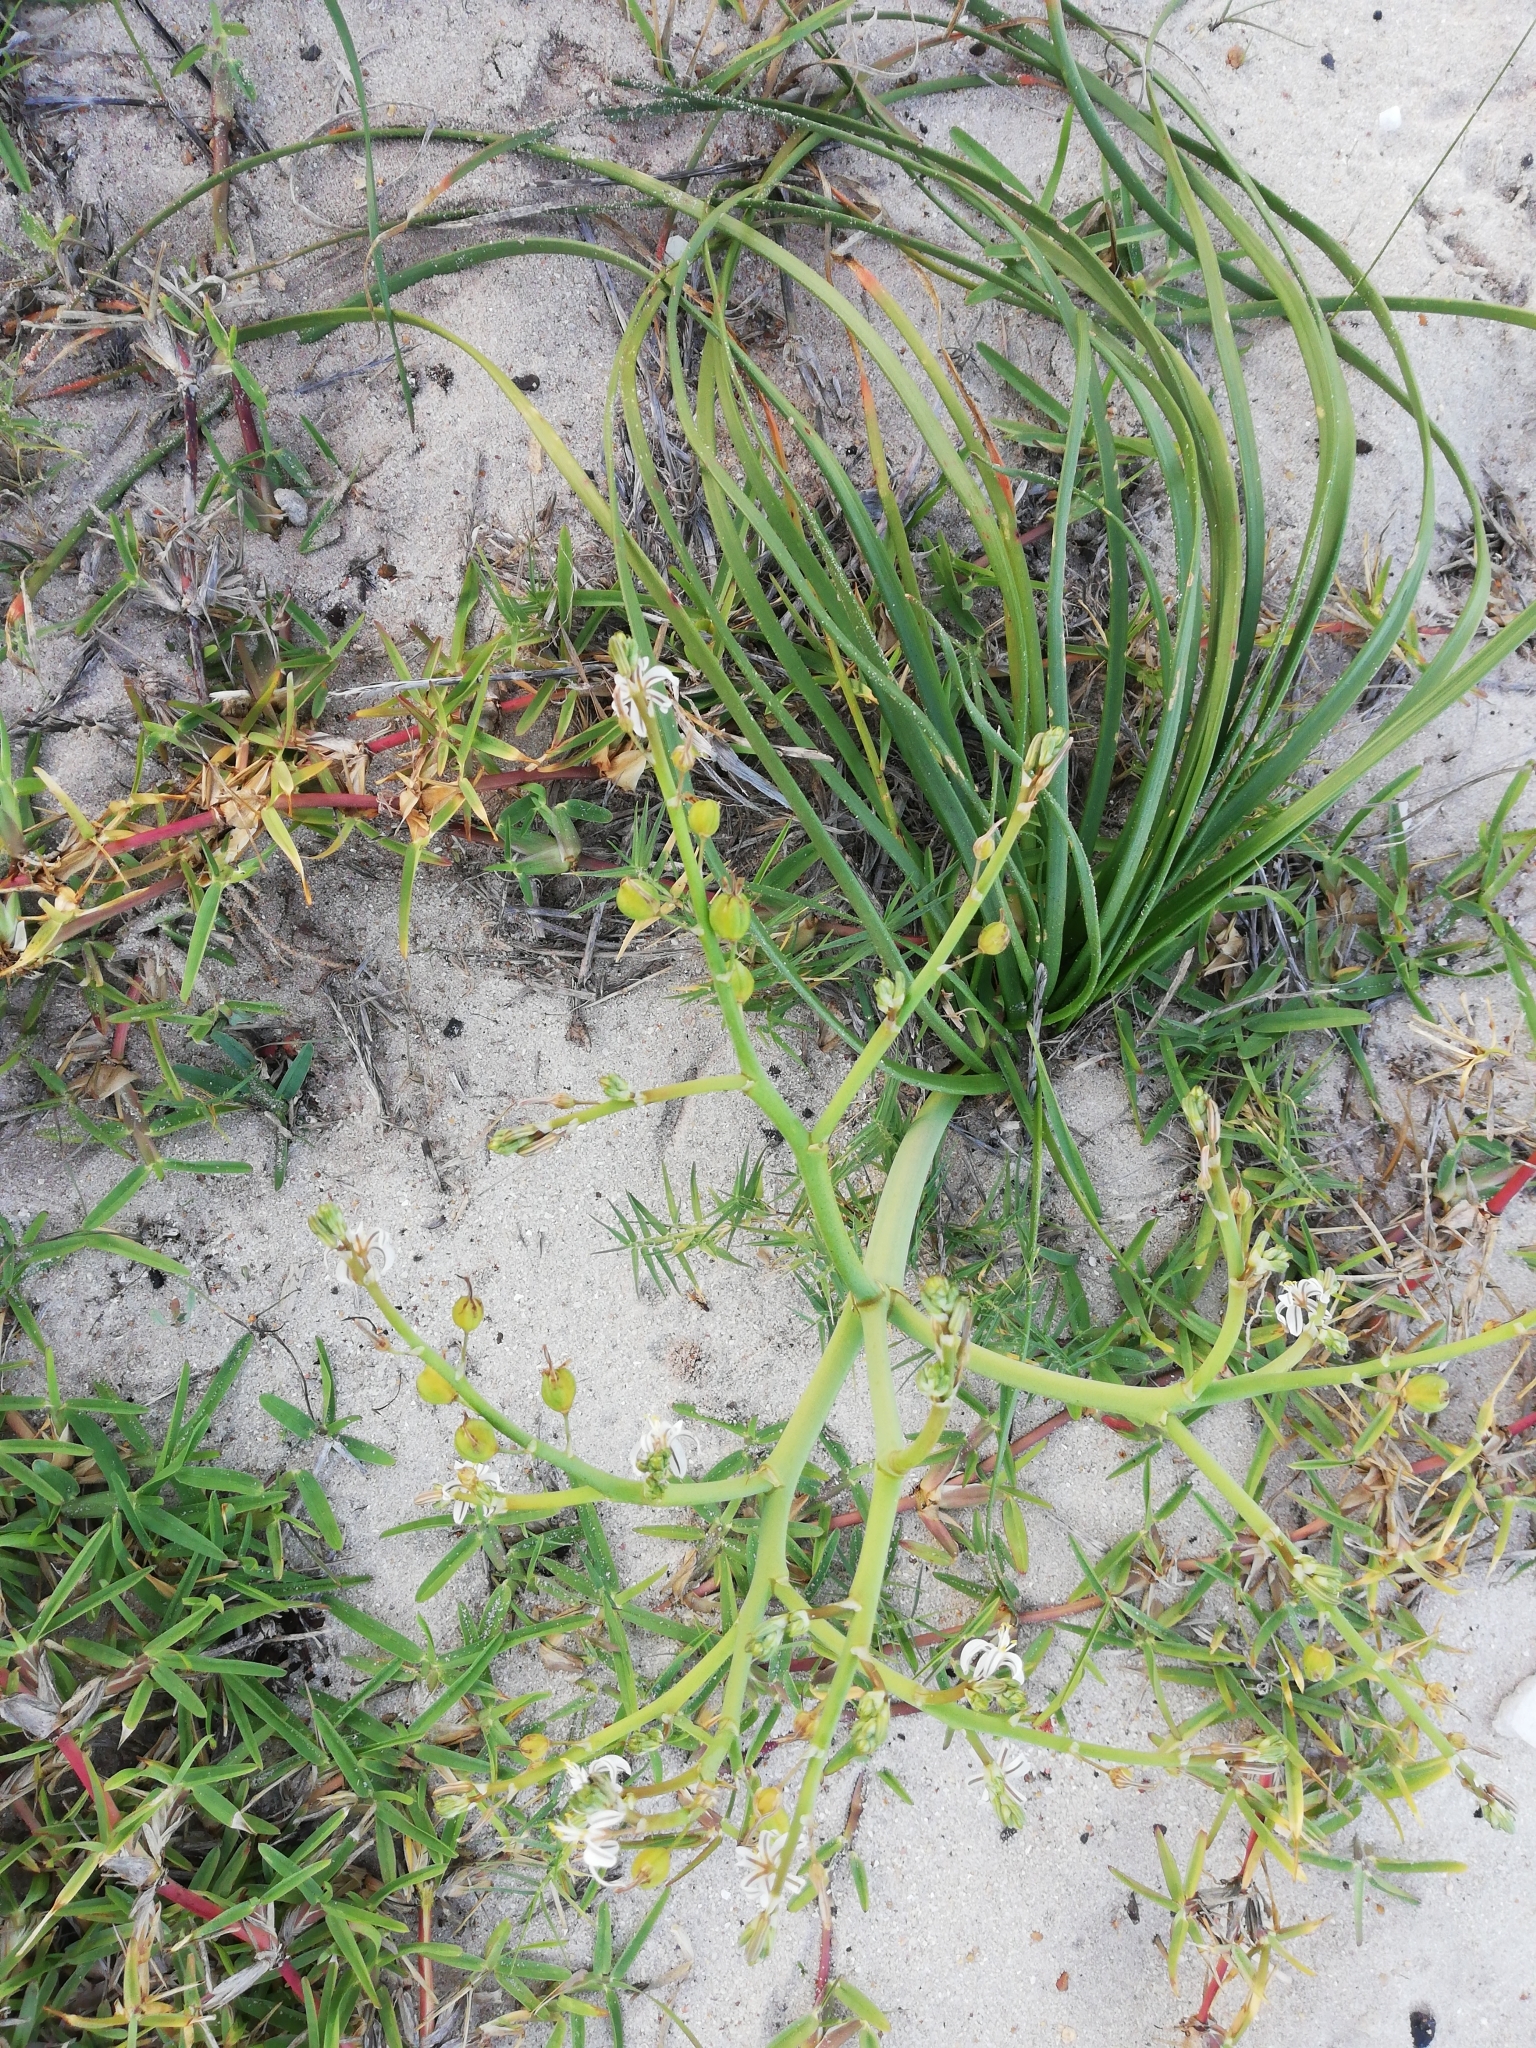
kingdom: Plantae
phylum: Tracheophyta
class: Liliopsida
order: Asparagales
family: Asphodelaceae
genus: Trachyandra
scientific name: Trachyandra divaricata
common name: Dune onionweed
